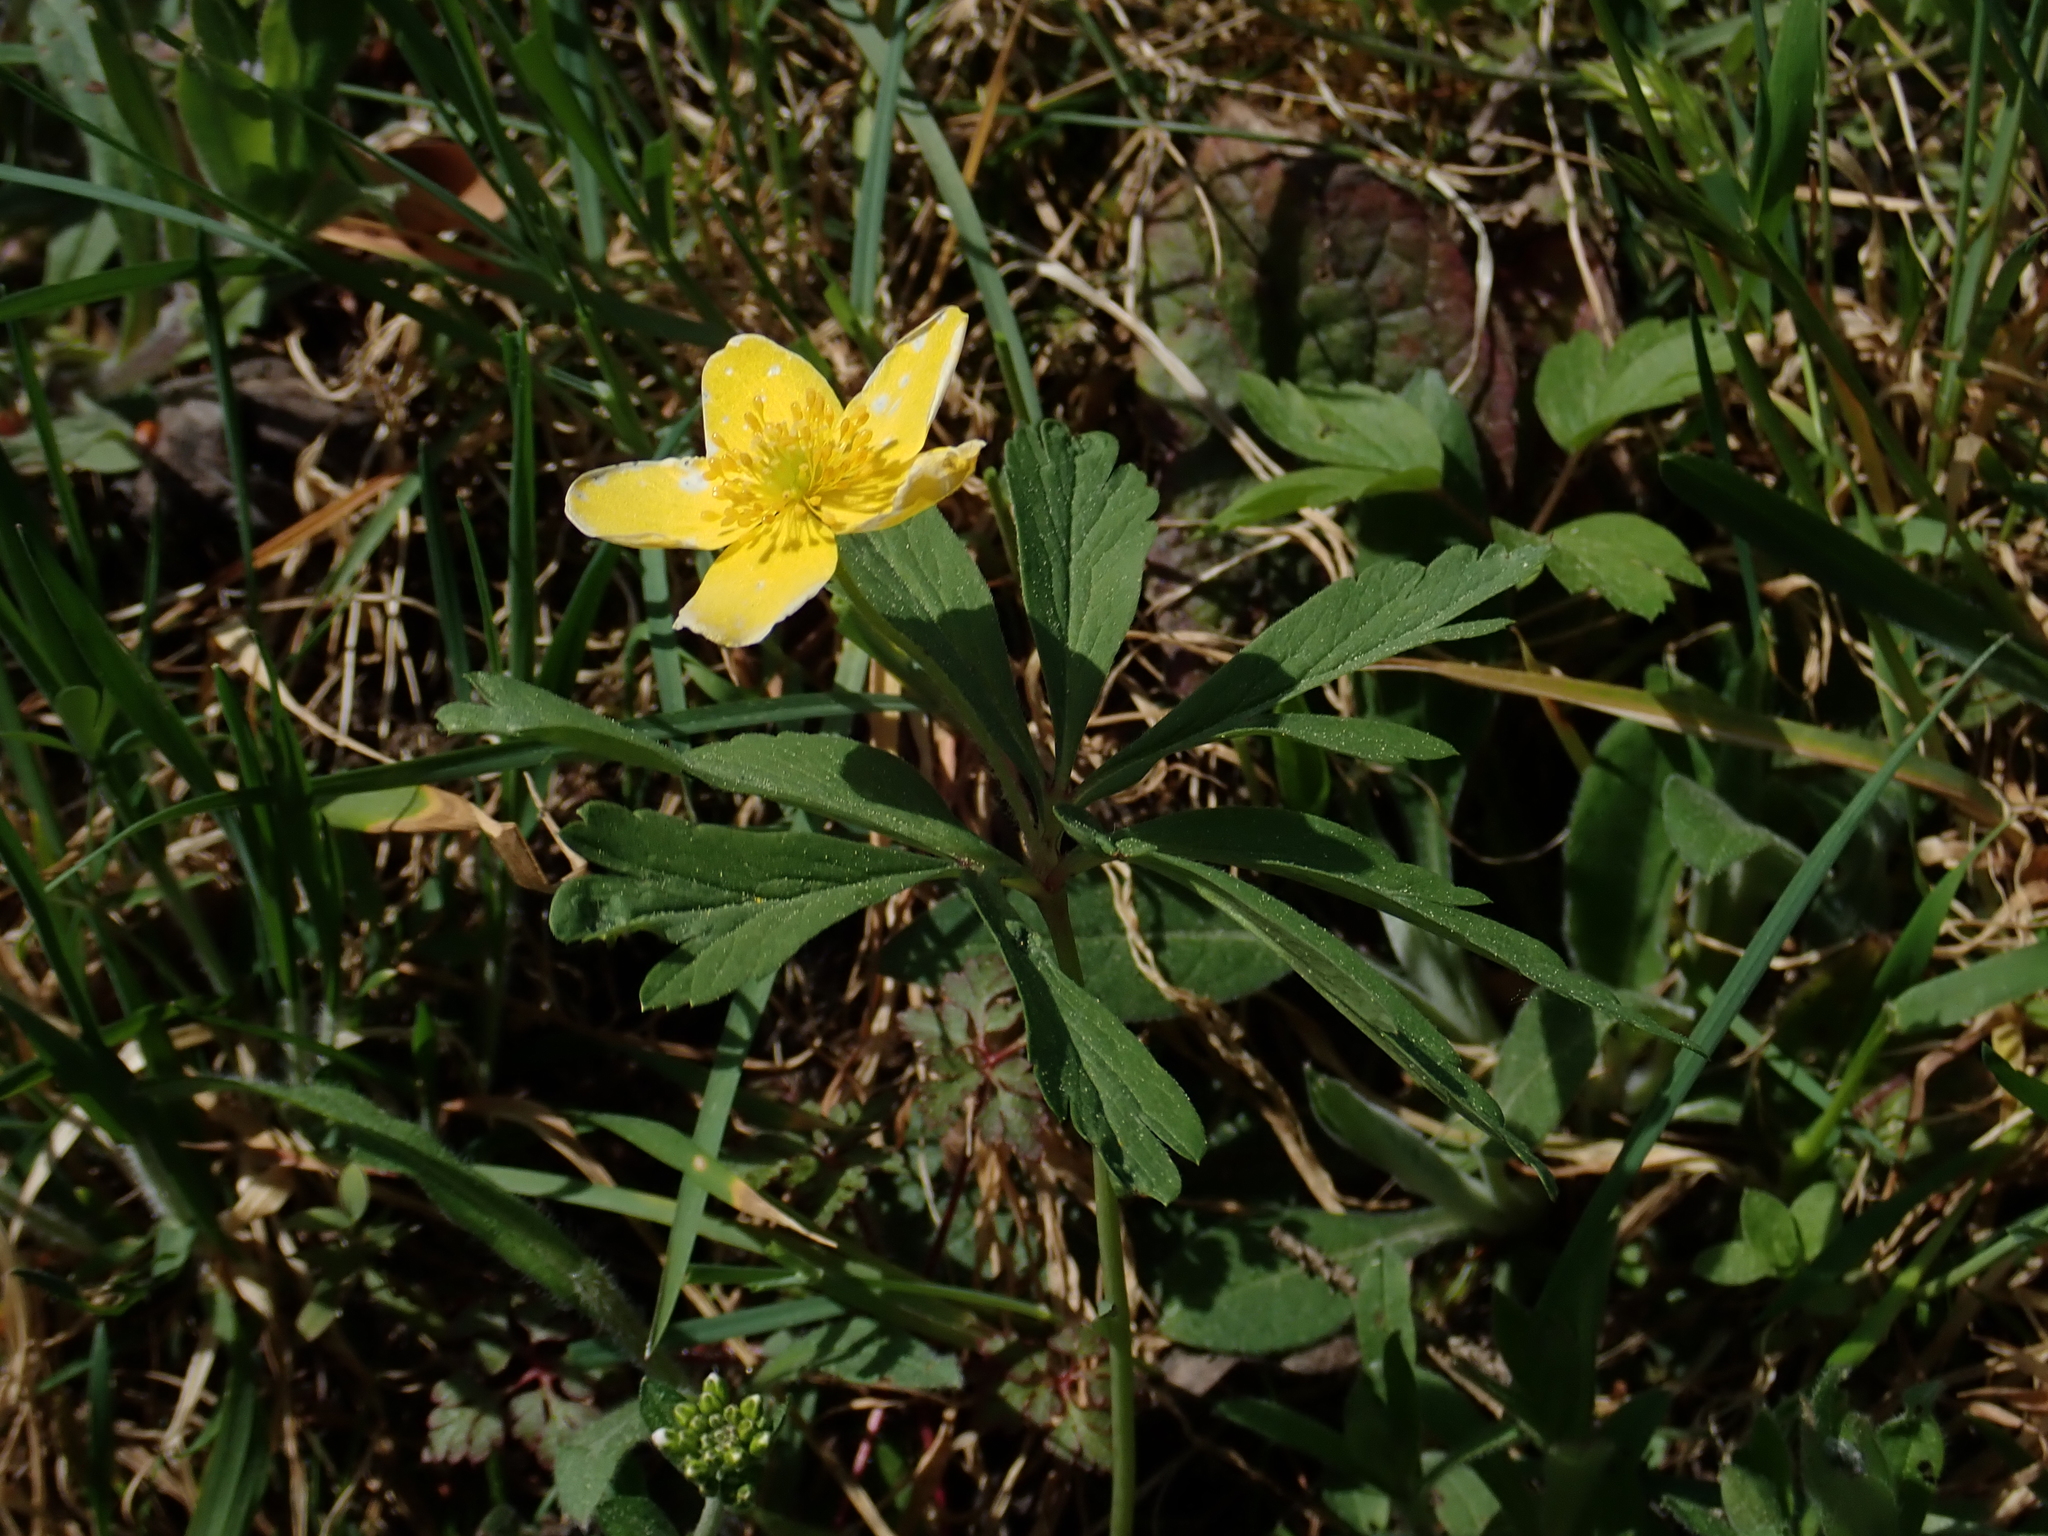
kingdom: Plantae
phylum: Tracheophyta
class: Magnoliopsida
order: Ranunculales
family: Ranunculaceae
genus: Anemone
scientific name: Anemone ranunculoides
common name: Yellow anemone
